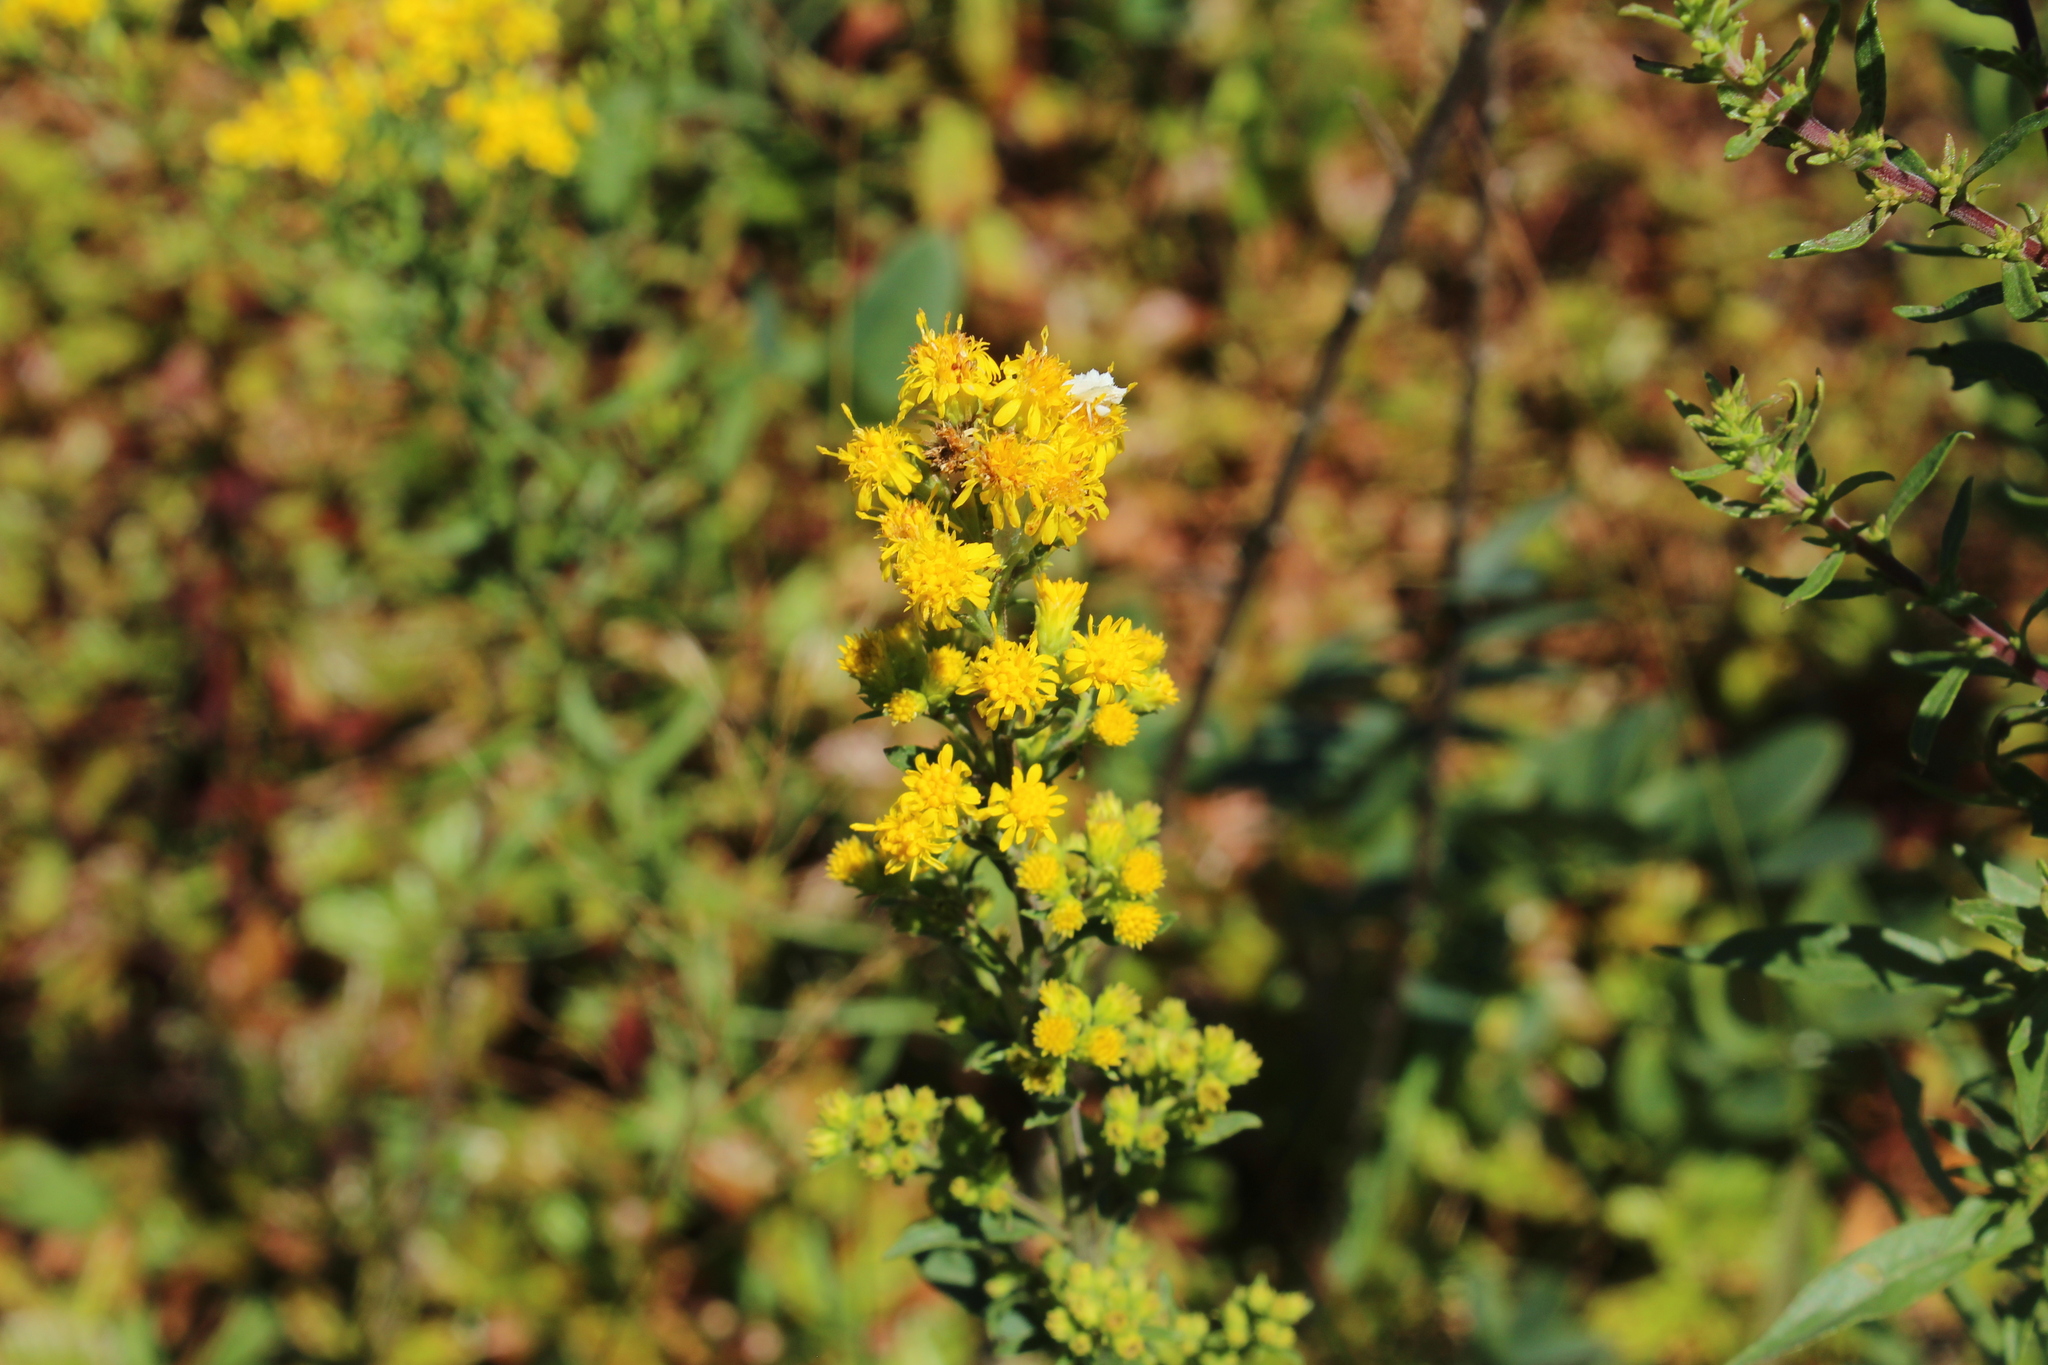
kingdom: Plantae
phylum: Tracheophyta
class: Magnoliopsida
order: Asterales
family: Asteraceae
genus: Solidago
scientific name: Solidago puberula
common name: Downy goldenrod
